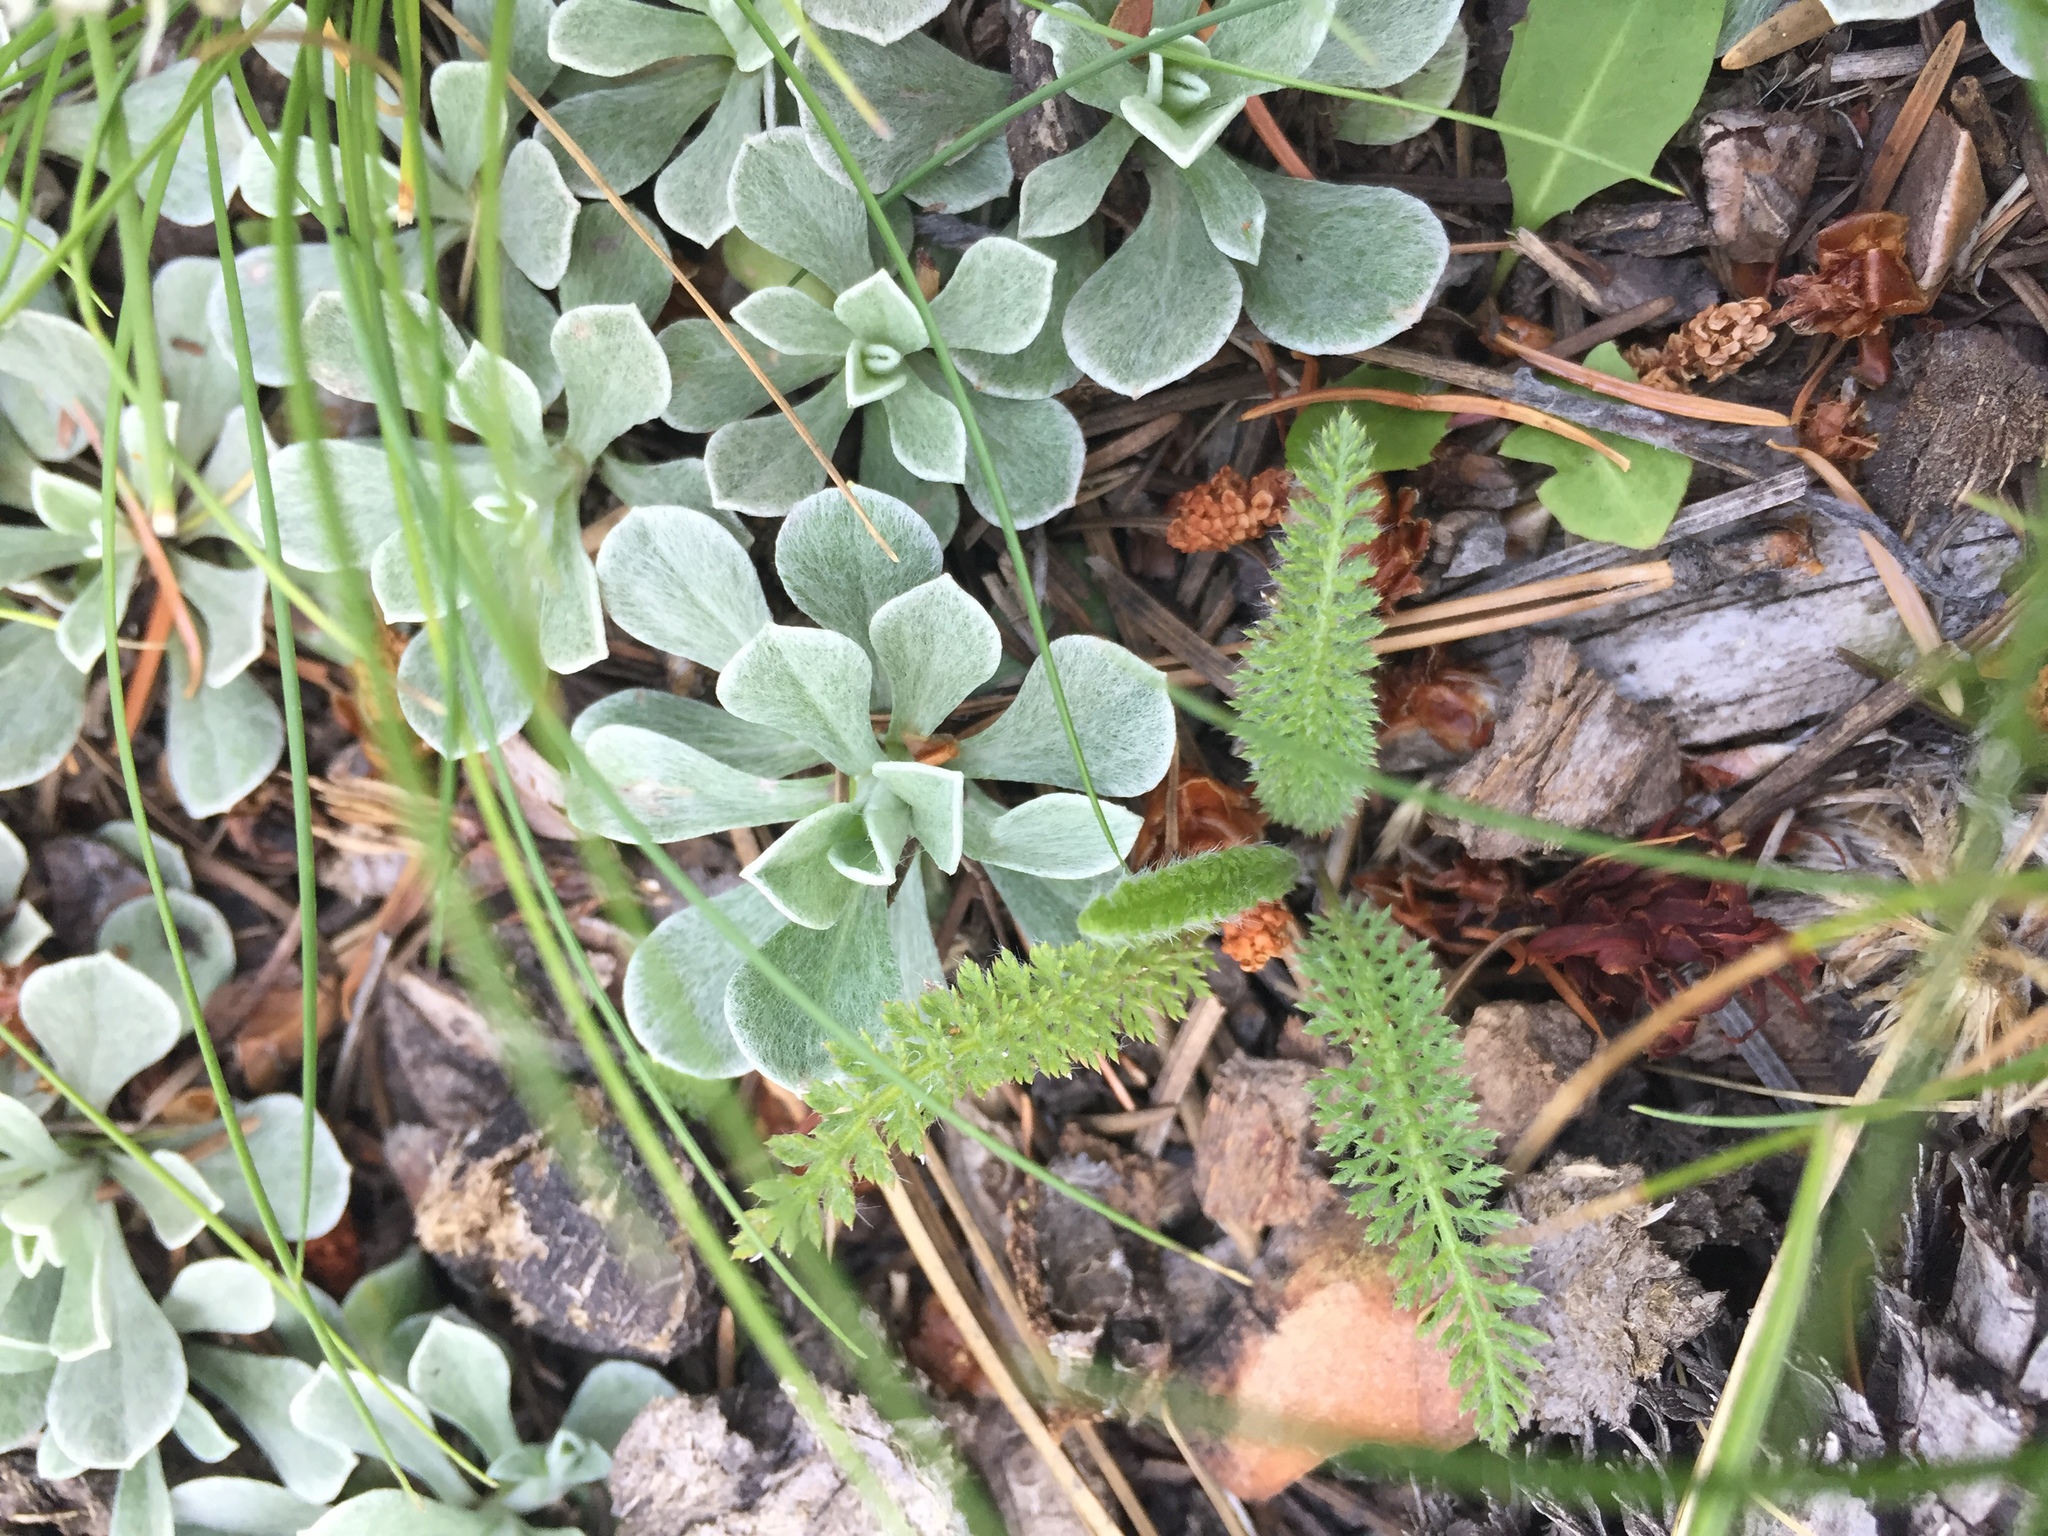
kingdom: Plantae
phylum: Tracheophyta
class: Magnoliopsida
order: Asterales
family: Asteraceae
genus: Achillea
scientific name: Achillea millefolium
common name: Yarrow
